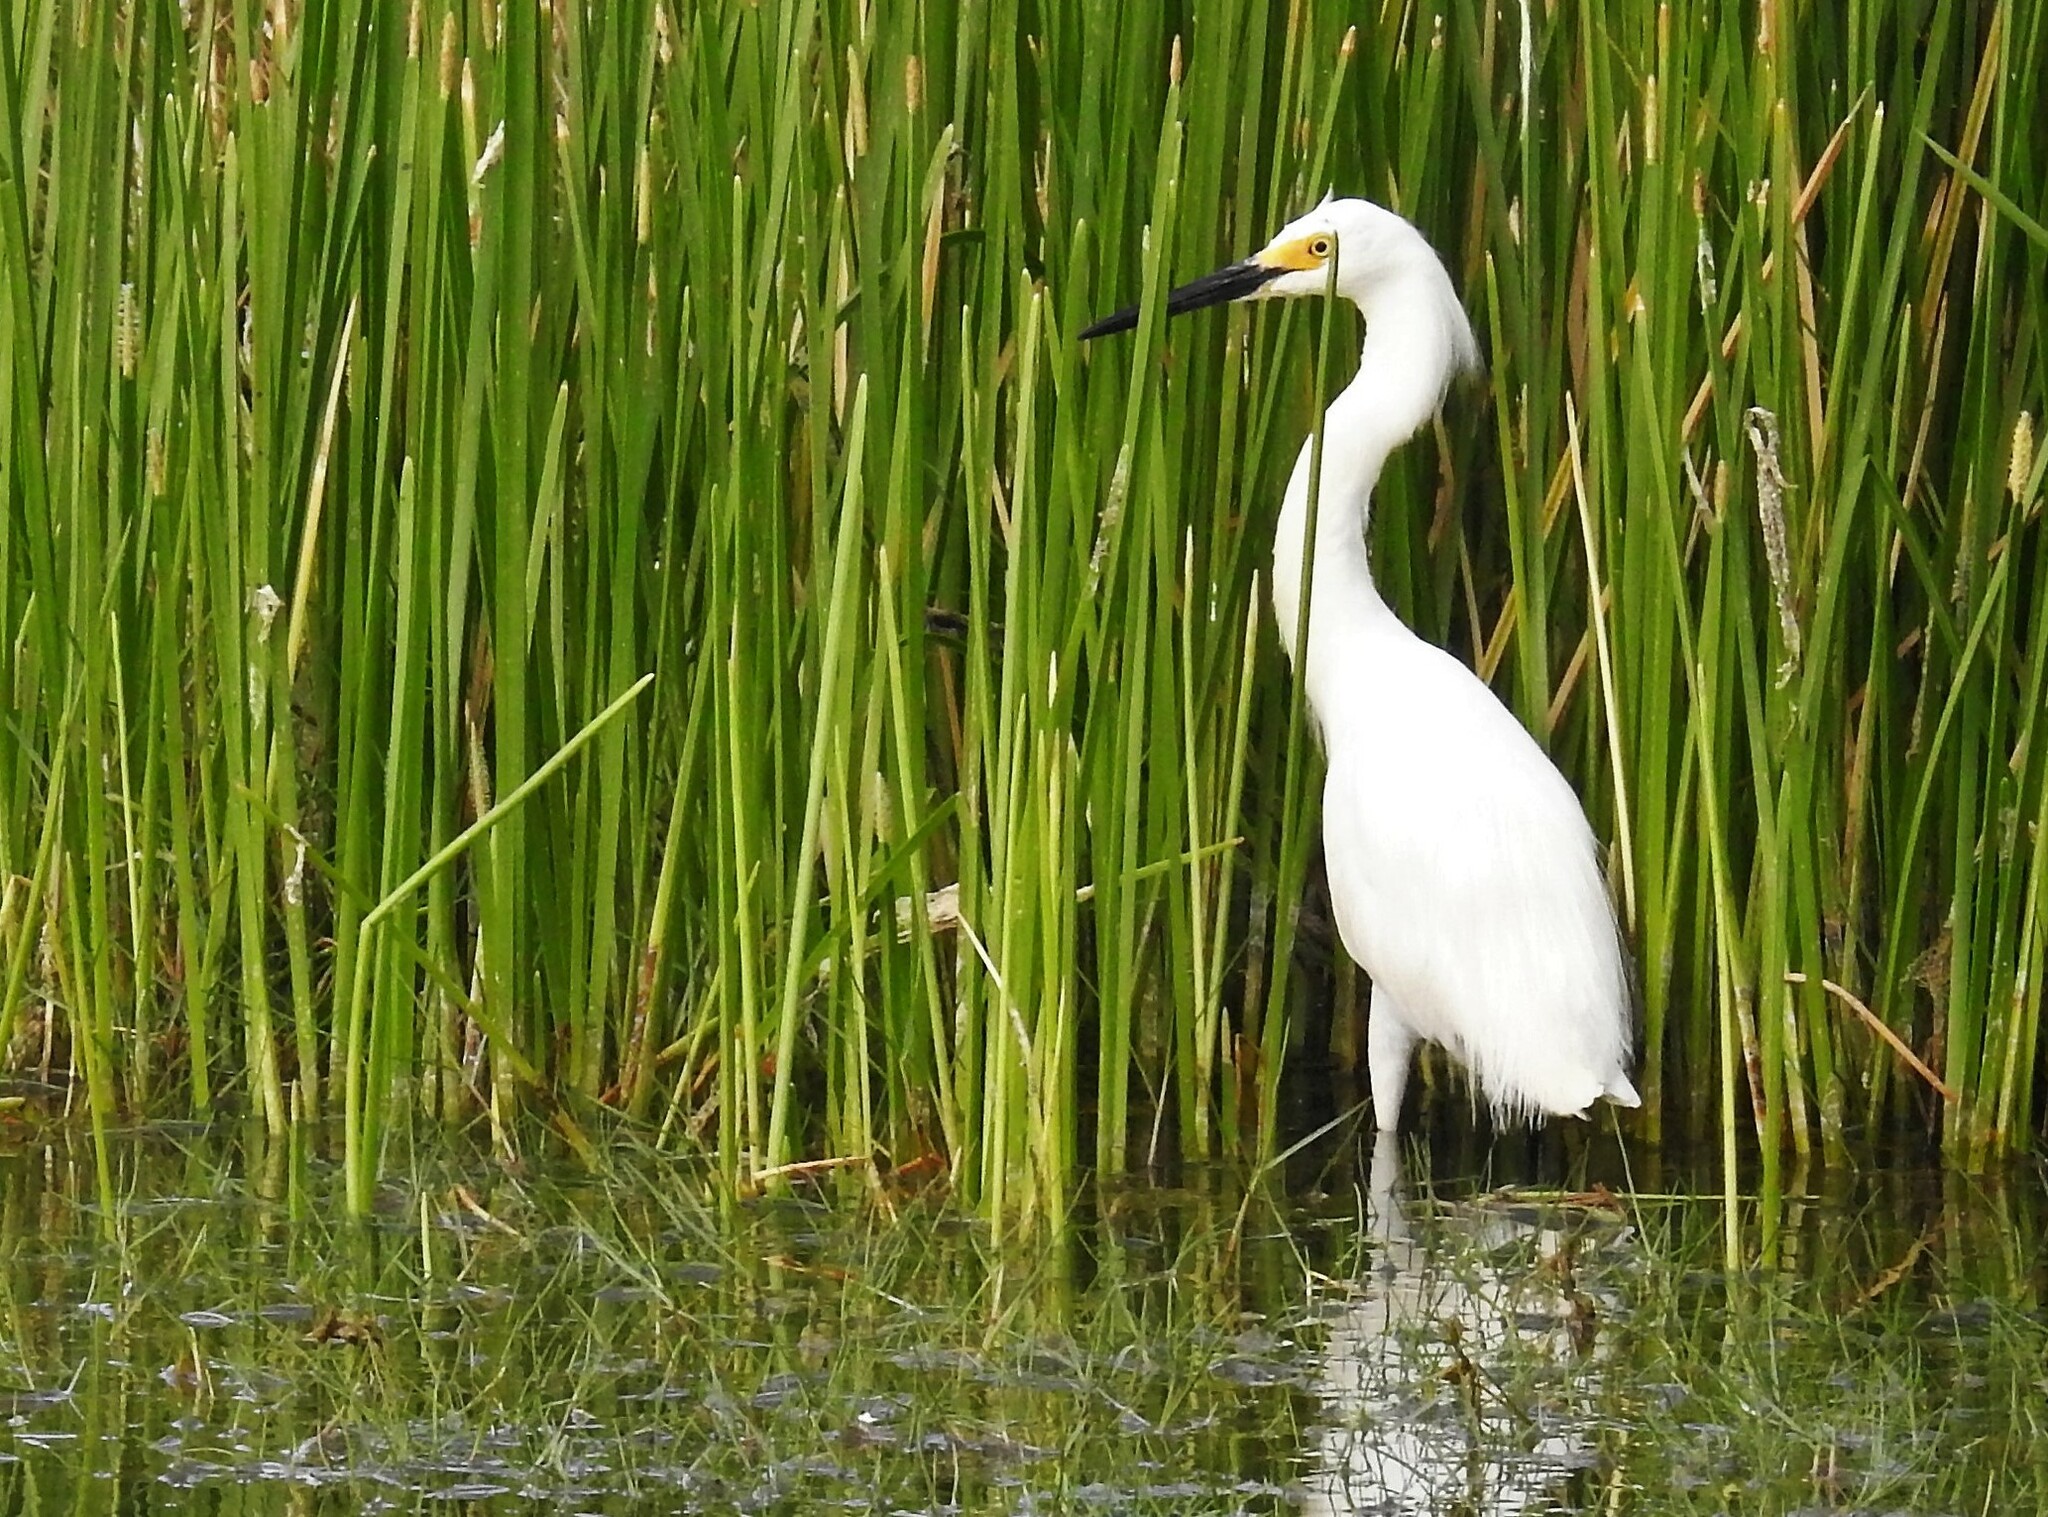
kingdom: Animalia
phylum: Chordata
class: Aves
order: Pelecaniformes
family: Ardeidae
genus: Egretta
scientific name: Egretta thula
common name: Snowy egret
